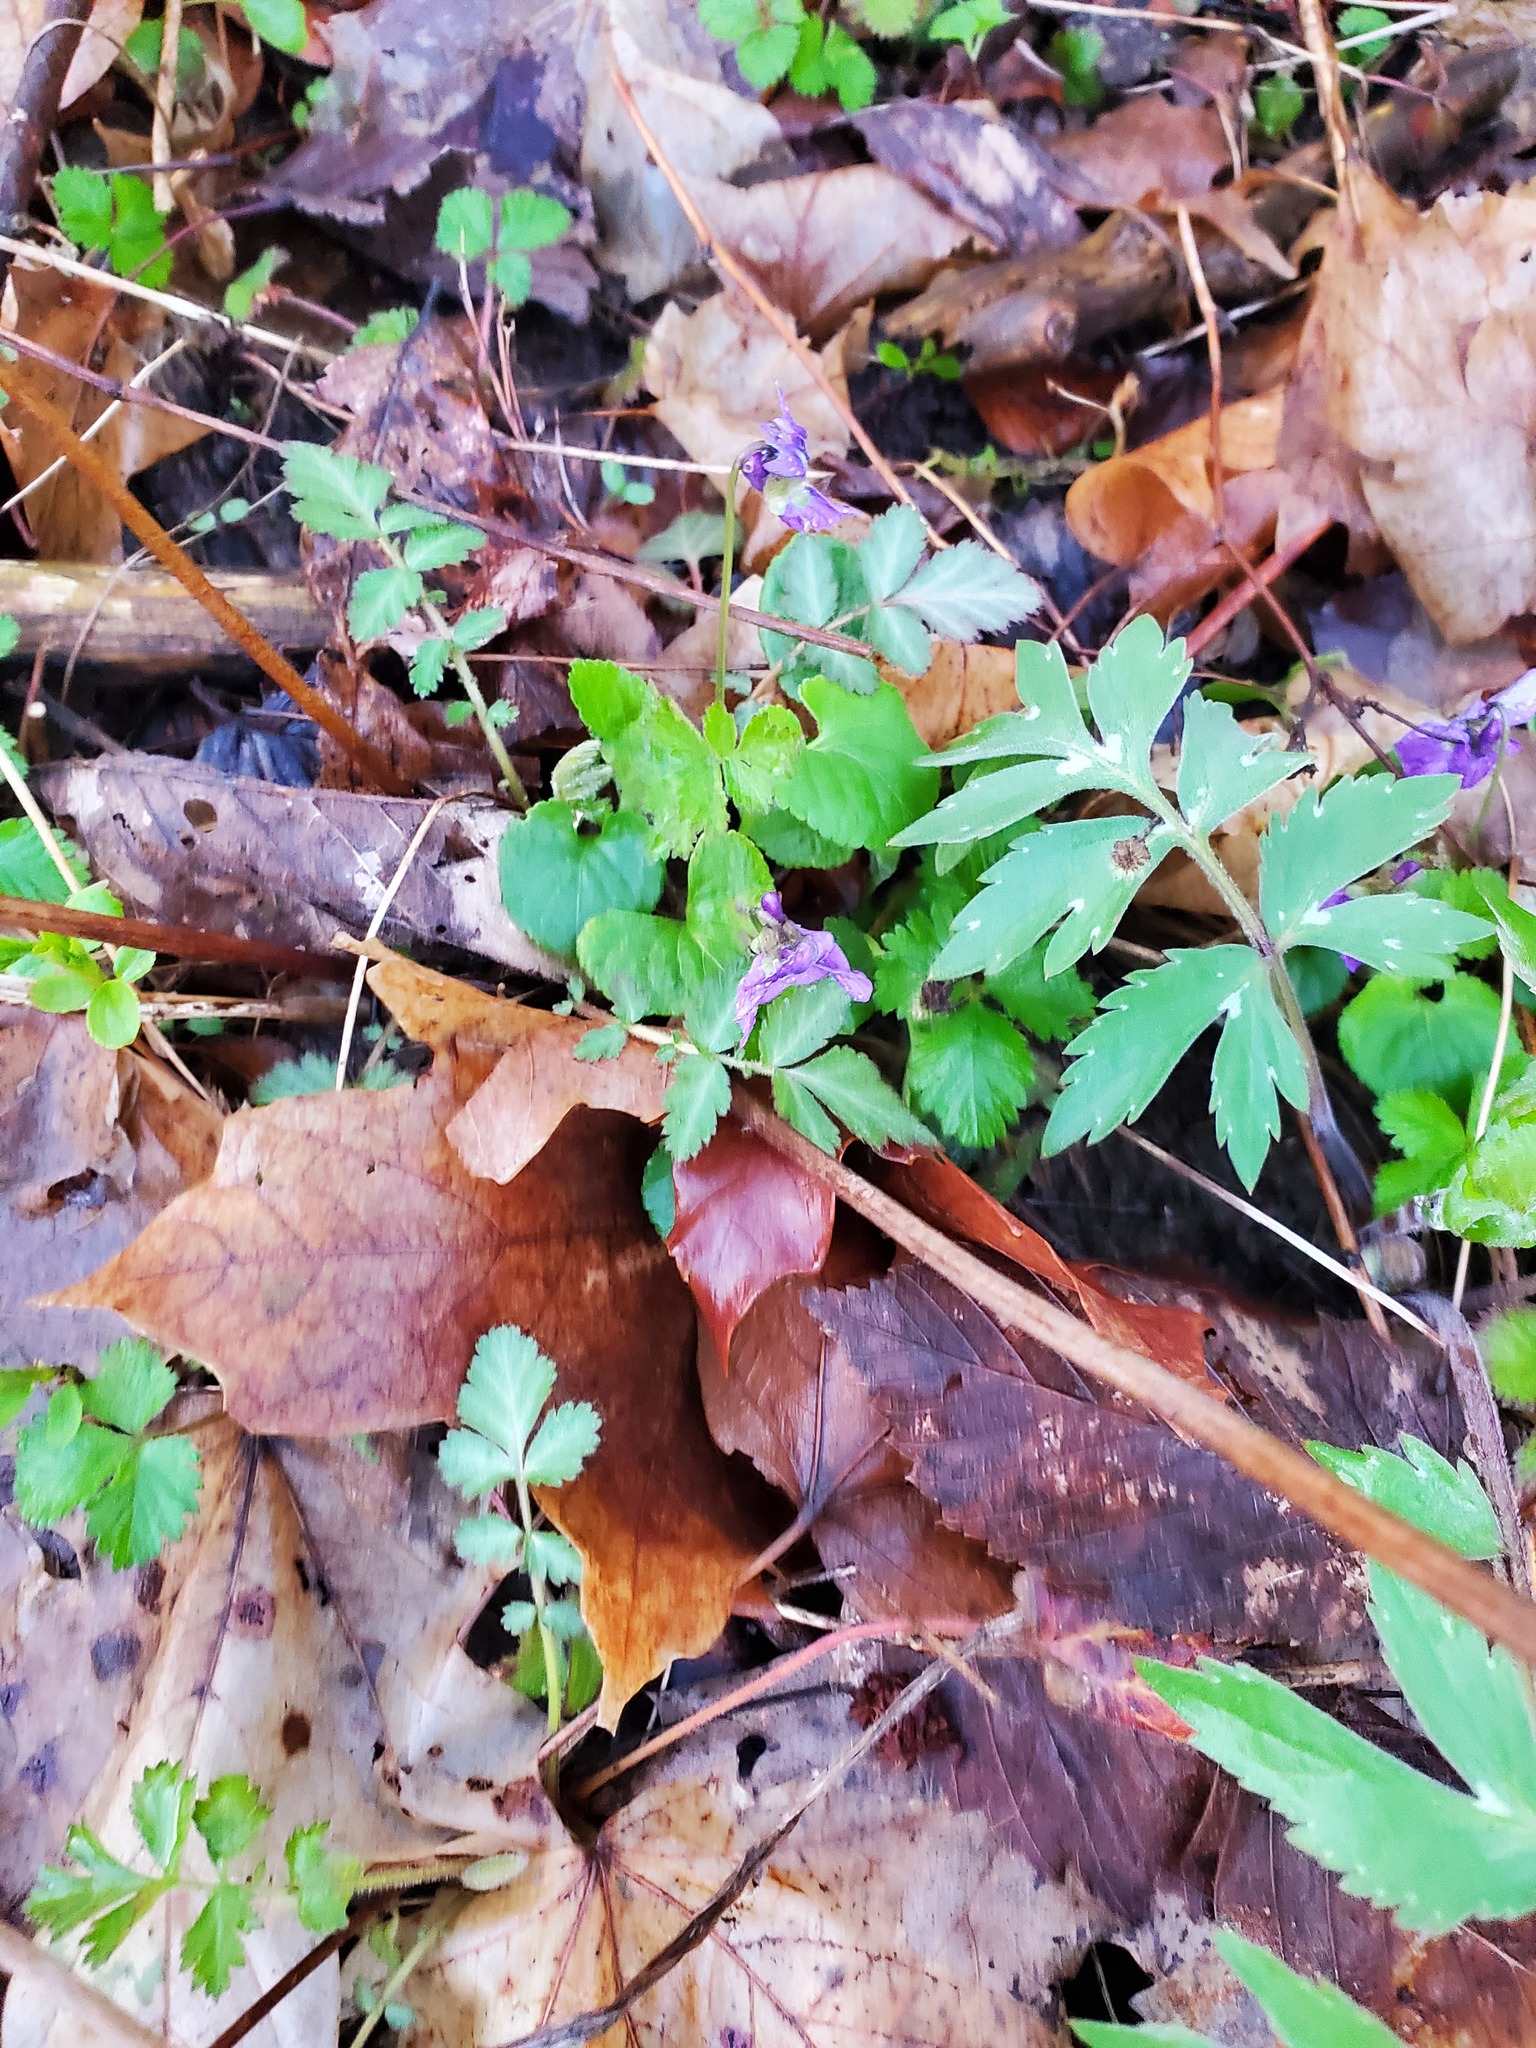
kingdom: Plantae
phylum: Tracheophyta
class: Magnoliopsida
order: Boraginales
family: Hydrophyllaceae
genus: Hydrophyllum
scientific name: Hydrophyllum virginianum
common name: Virginia waterleaf
